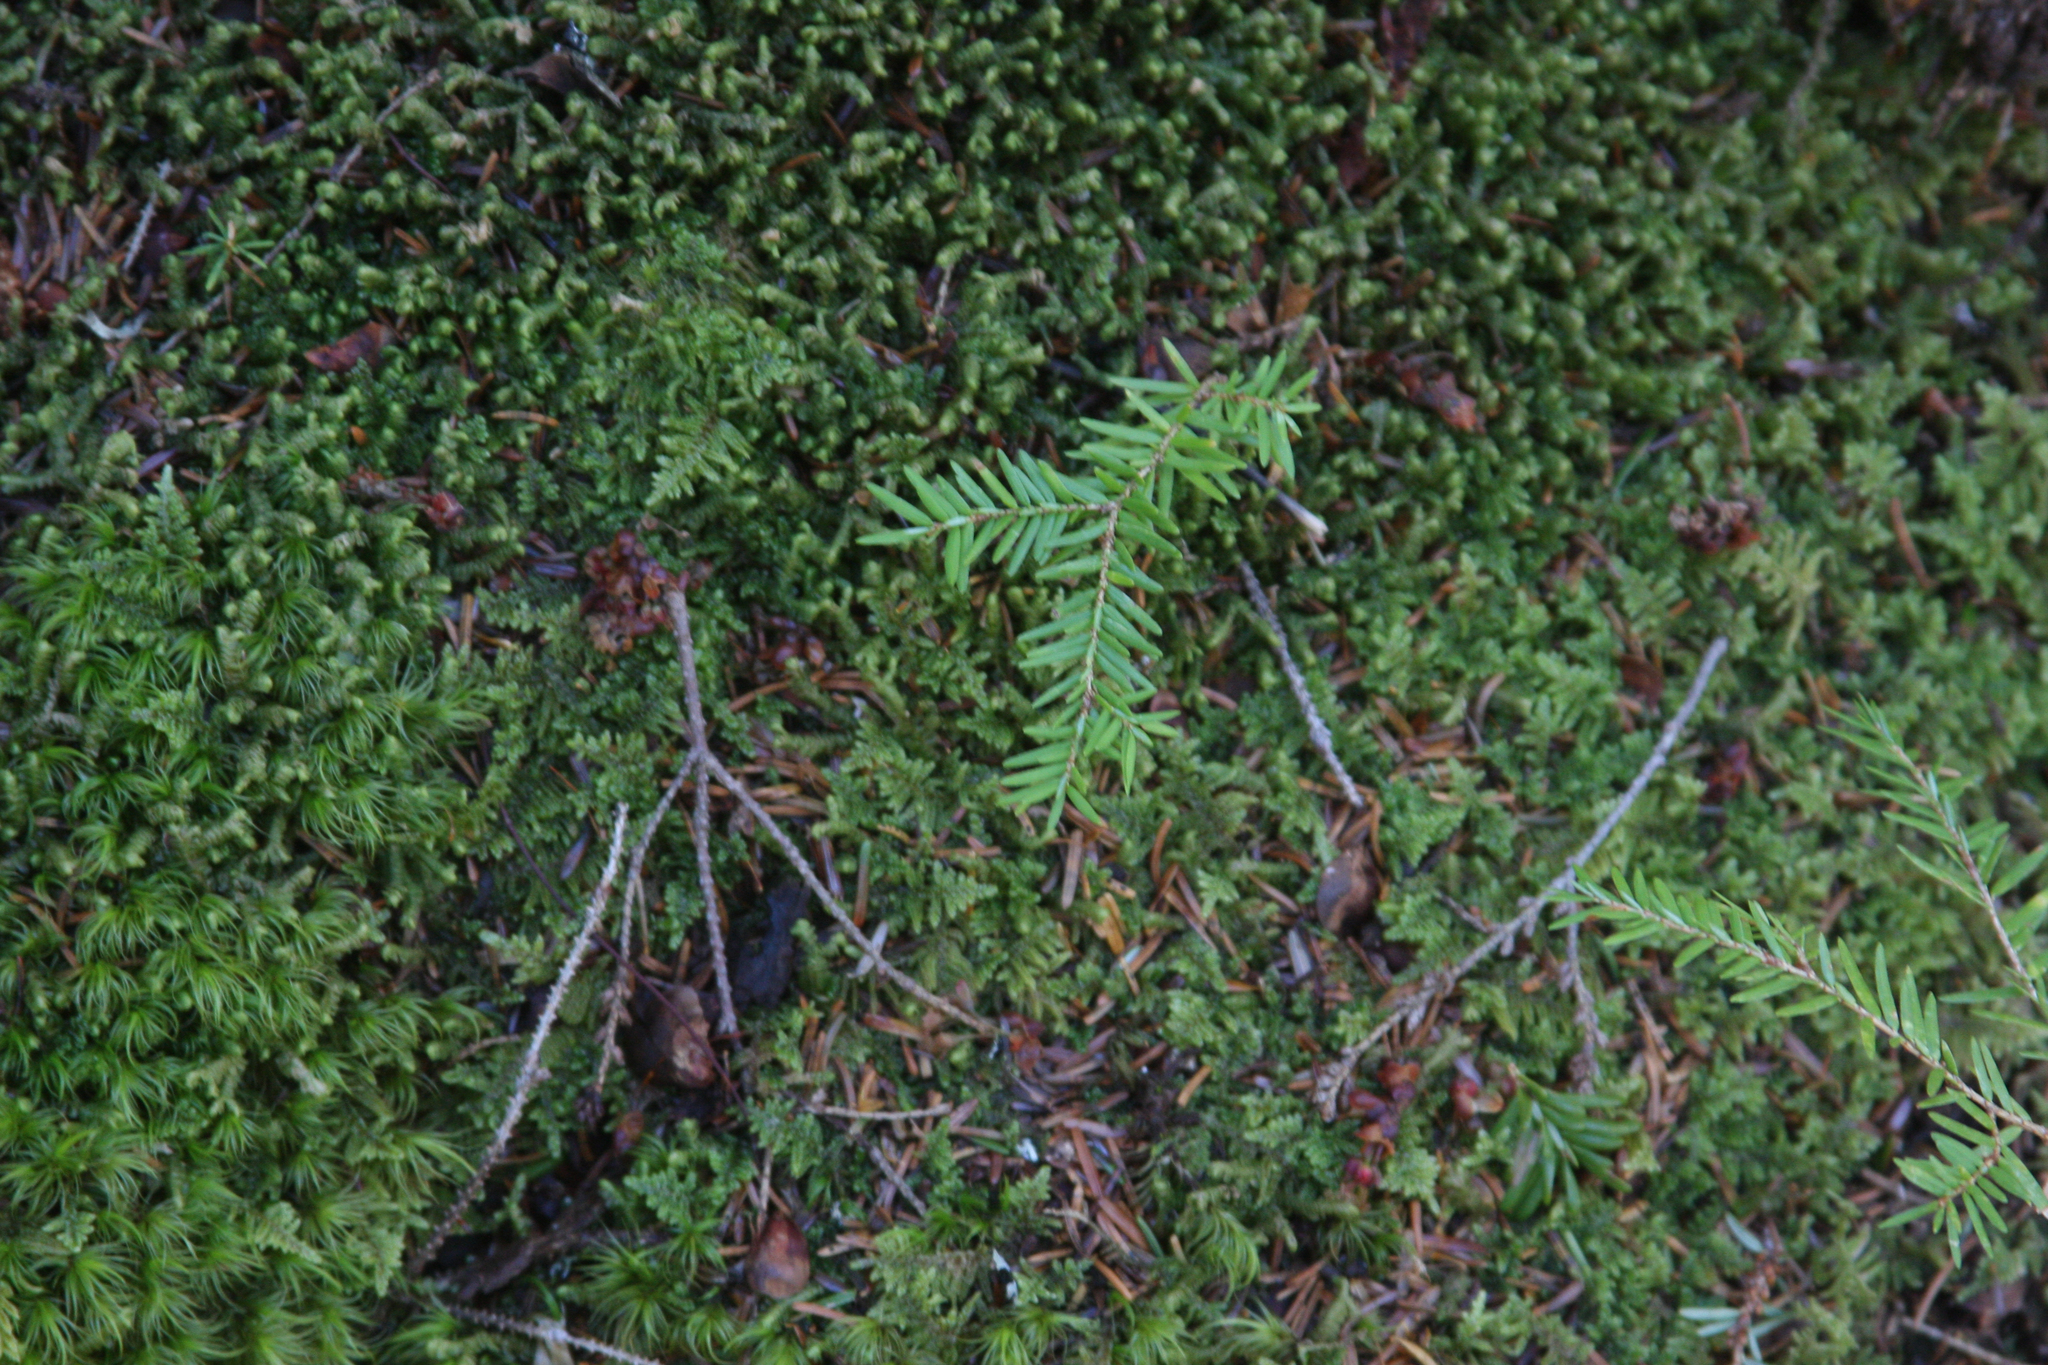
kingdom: Plantae
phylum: Tracheophyta
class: Pinopsida
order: Pinales
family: Pinaceae
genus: Tsuga
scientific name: Tsuga canadensis
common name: Eastern hemlock
